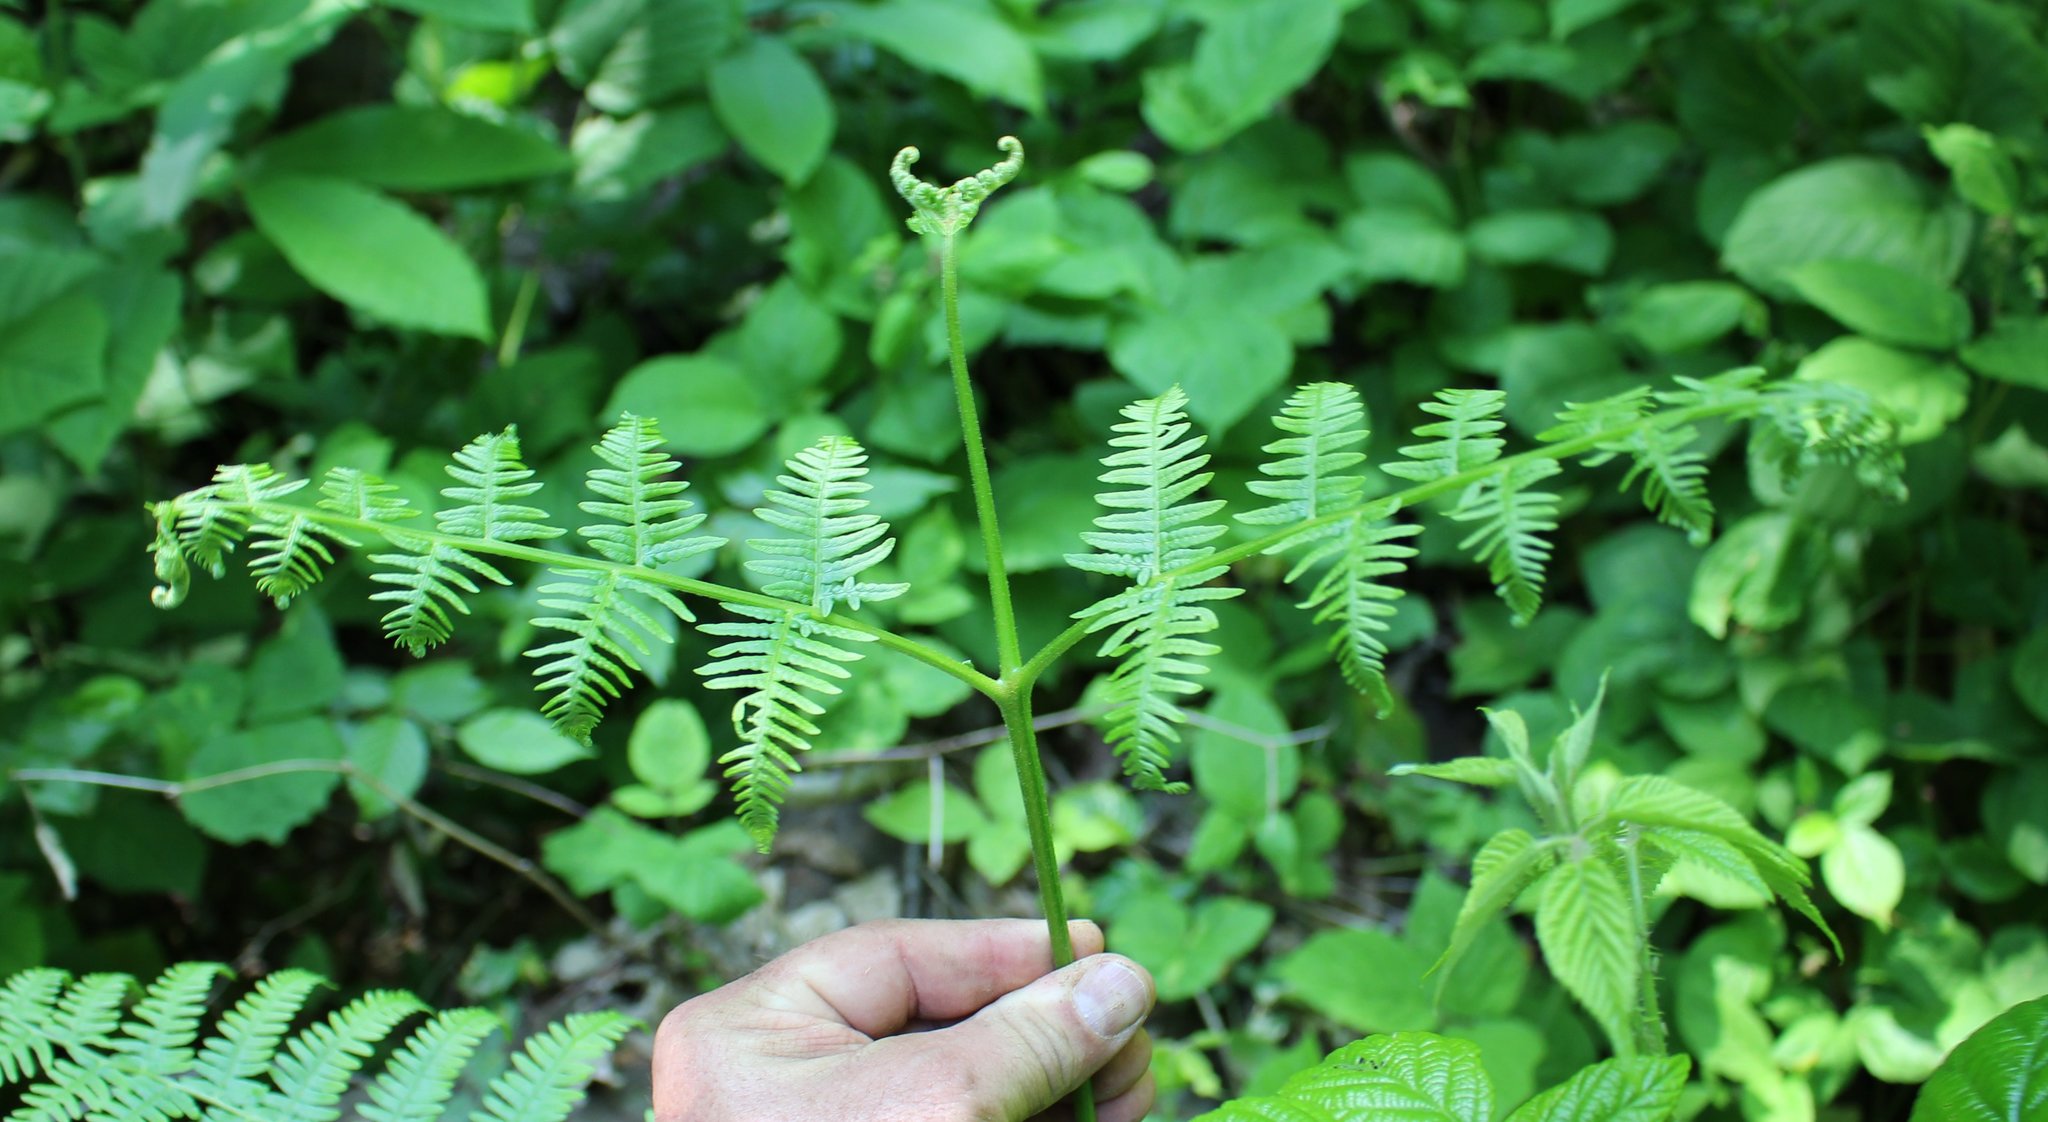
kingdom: Plantae
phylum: Tracheophyta
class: Polypodiopsida
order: Polypodiales
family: Dennstaedtiaceae
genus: Pteridium
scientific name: Pteridium tauricum
